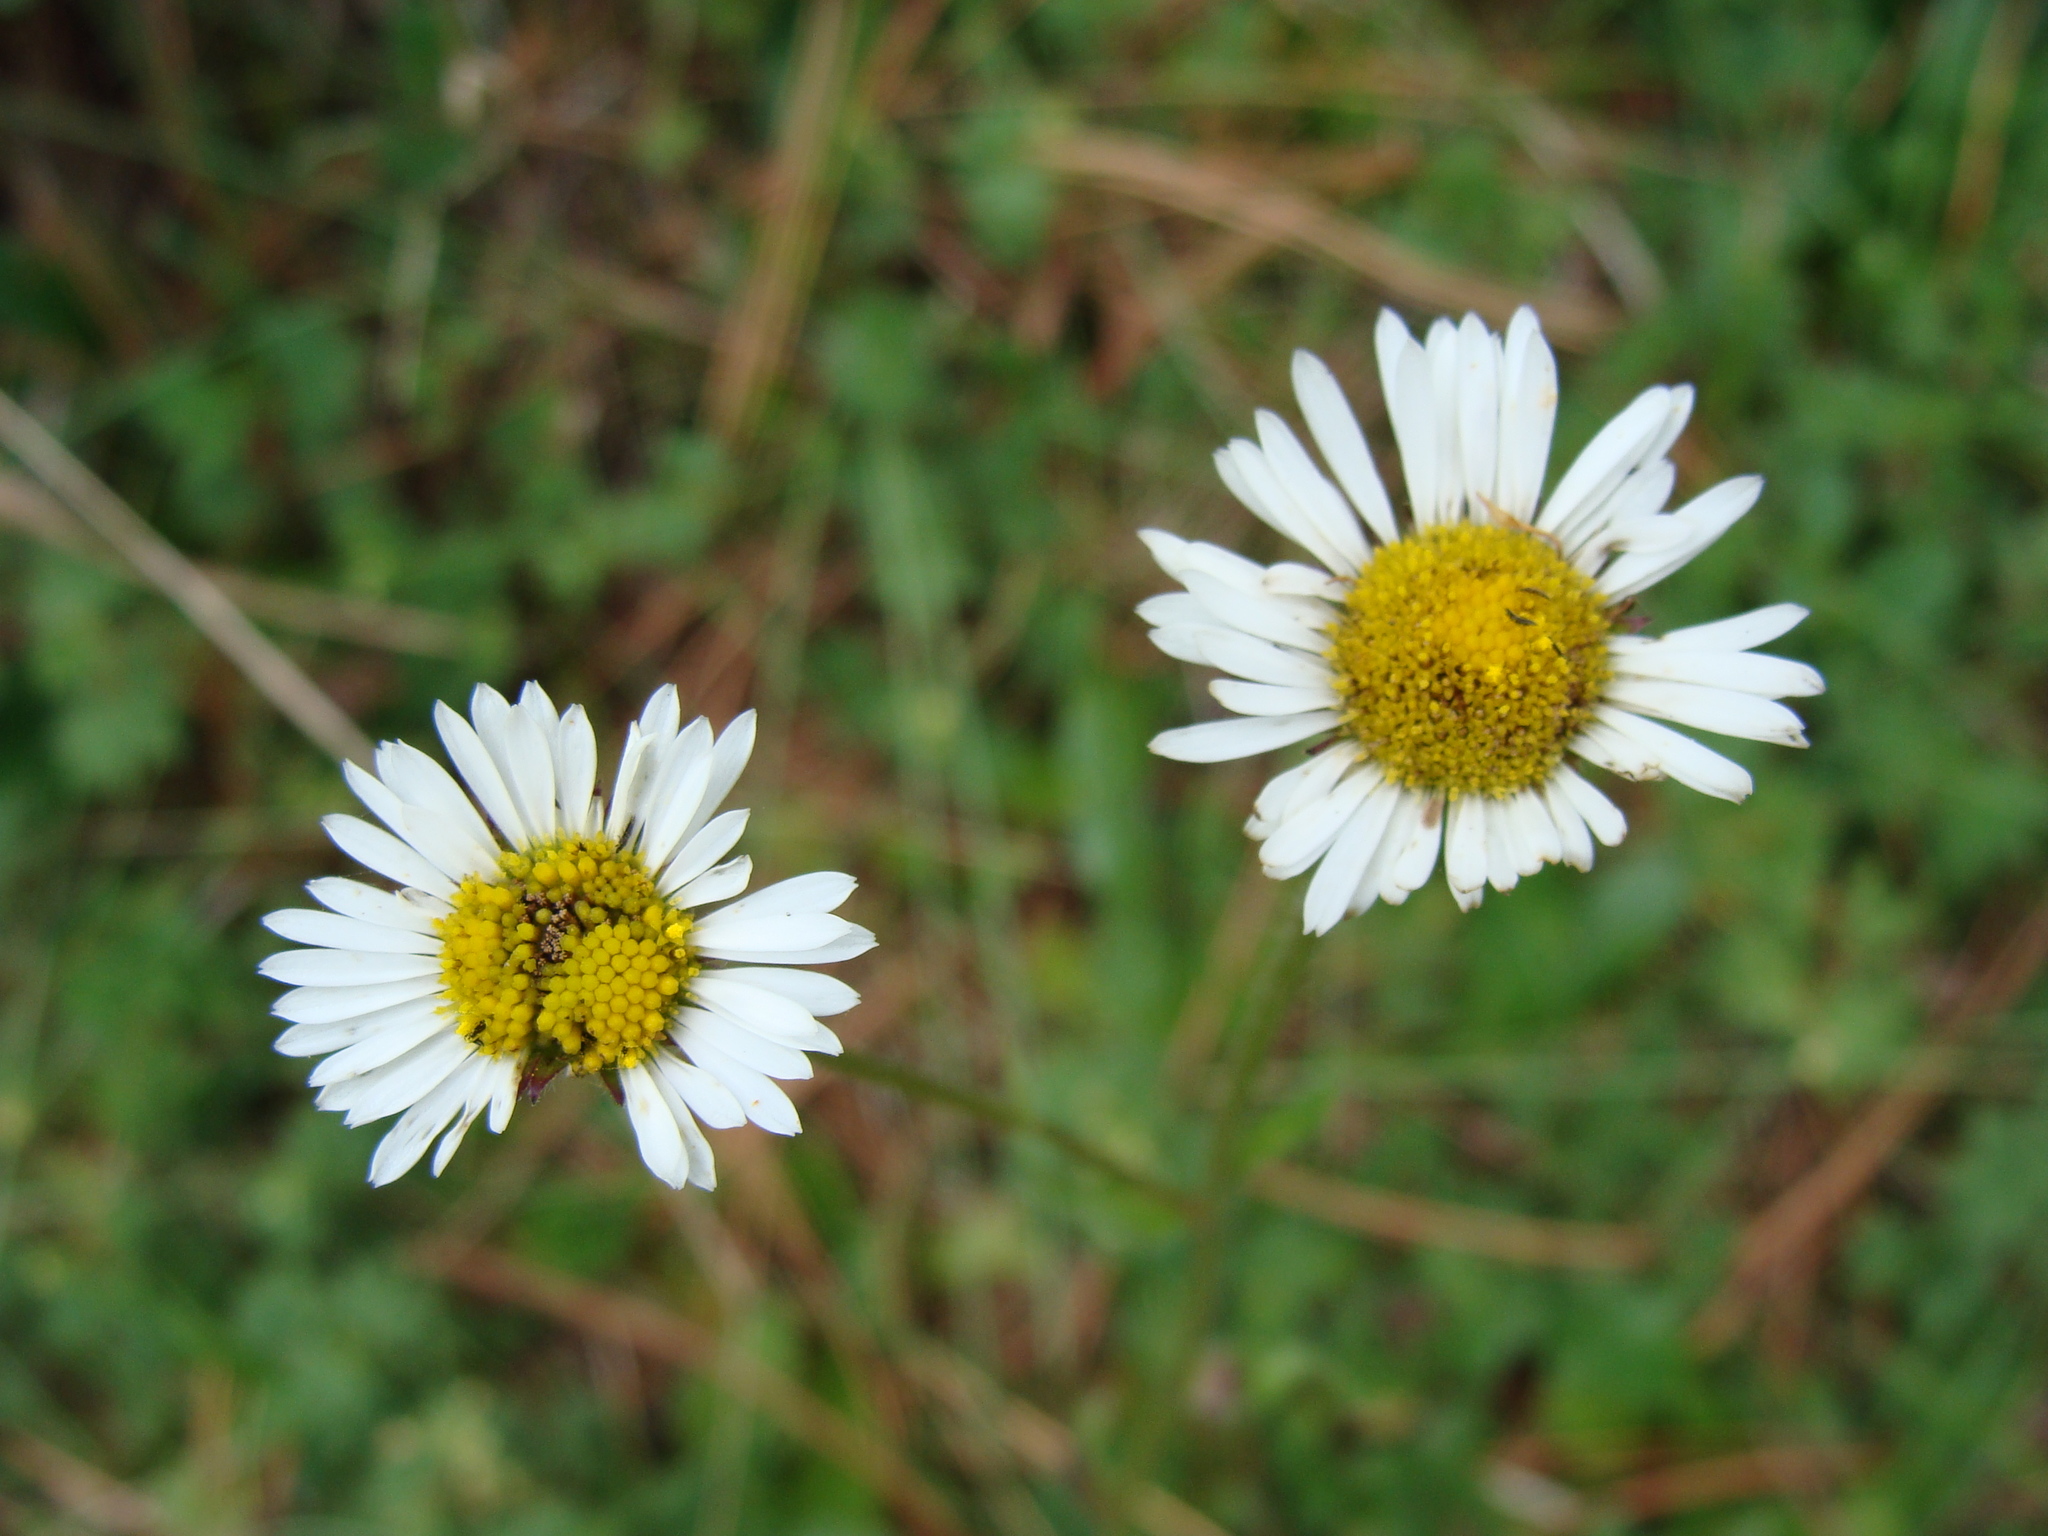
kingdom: Plantae
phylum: Tracheophyta
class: Magnoliopsida
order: Asterales
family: Asteraceae
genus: Astranthium
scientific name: Astranthium xanthocomoides
